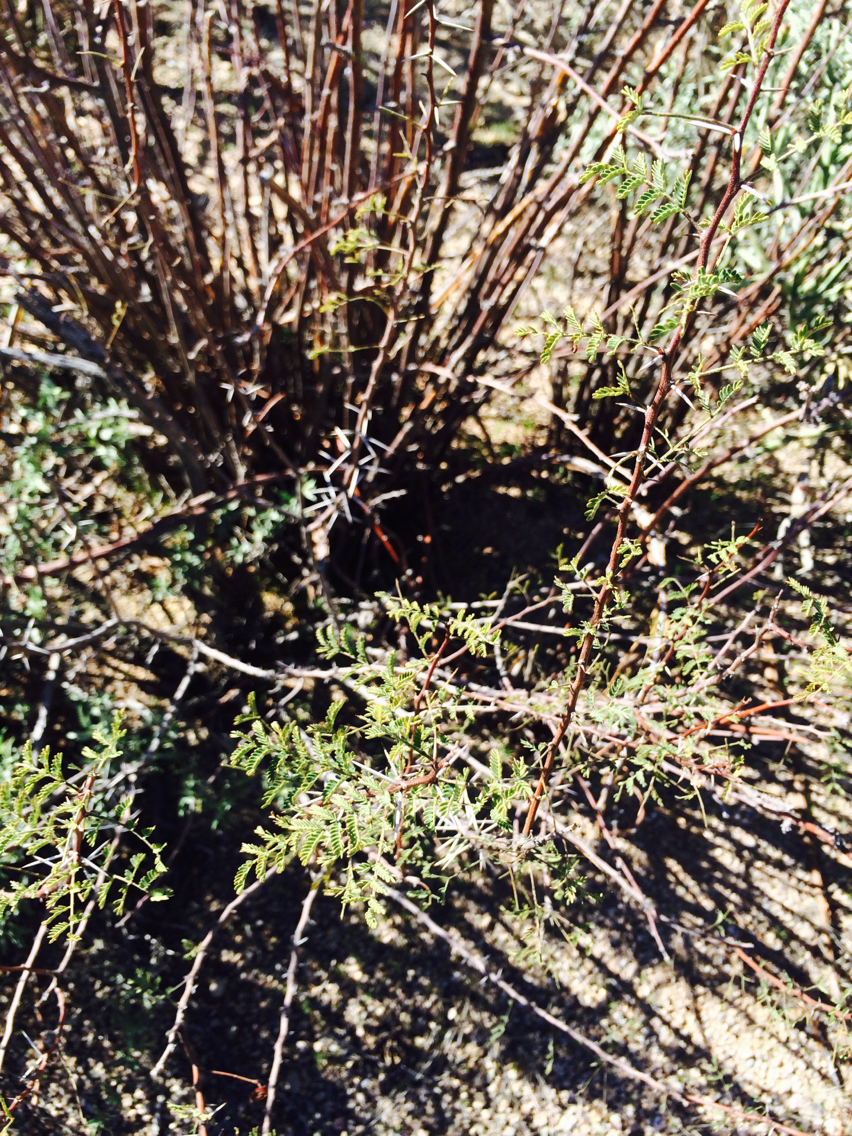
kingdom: Plantae
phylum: Tracheophyta
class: Magnoliopsida
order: Fabales
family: Fabaceae
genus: Vachellia
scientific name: Vachellia constricta
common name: Mescat acacia
